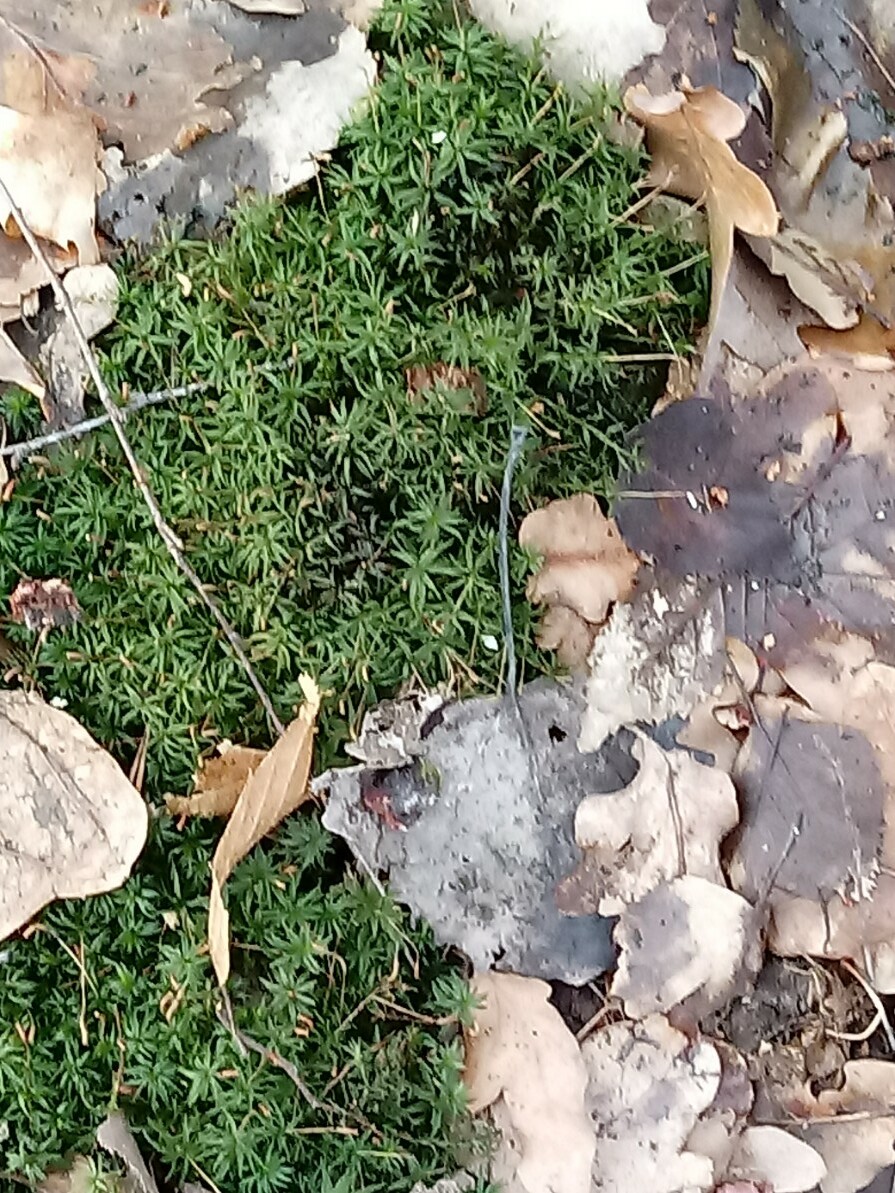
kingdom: Plantae
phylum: Bryophyta
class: Polytrichopsida
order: Polytrichales
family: Polytrichaceae
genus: Atrichum
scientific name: Atrichum undulatum
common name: Common smoothcap
